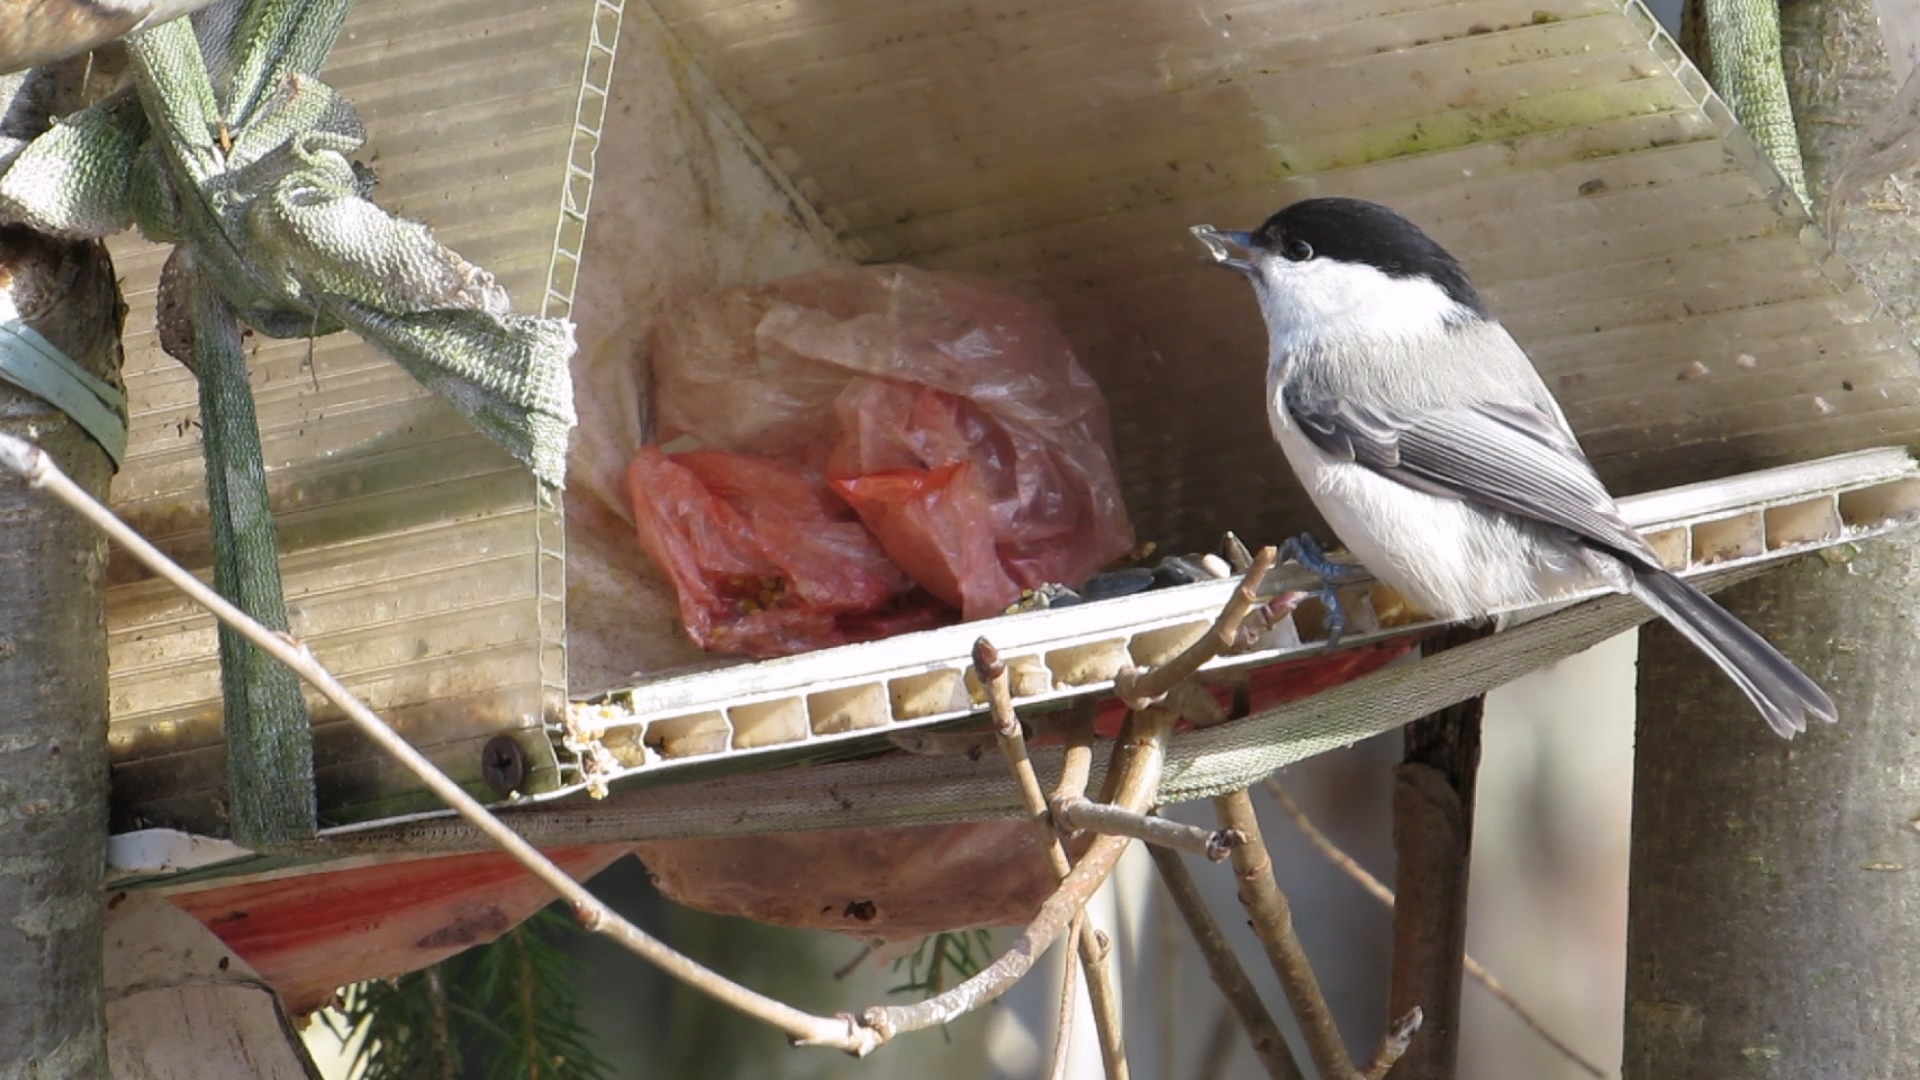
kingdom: Animalia
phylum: Chordata
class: Aves
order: Passeriformes
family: Paridae
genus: Poecile
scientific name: Poecile montanus
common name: Willow tit
